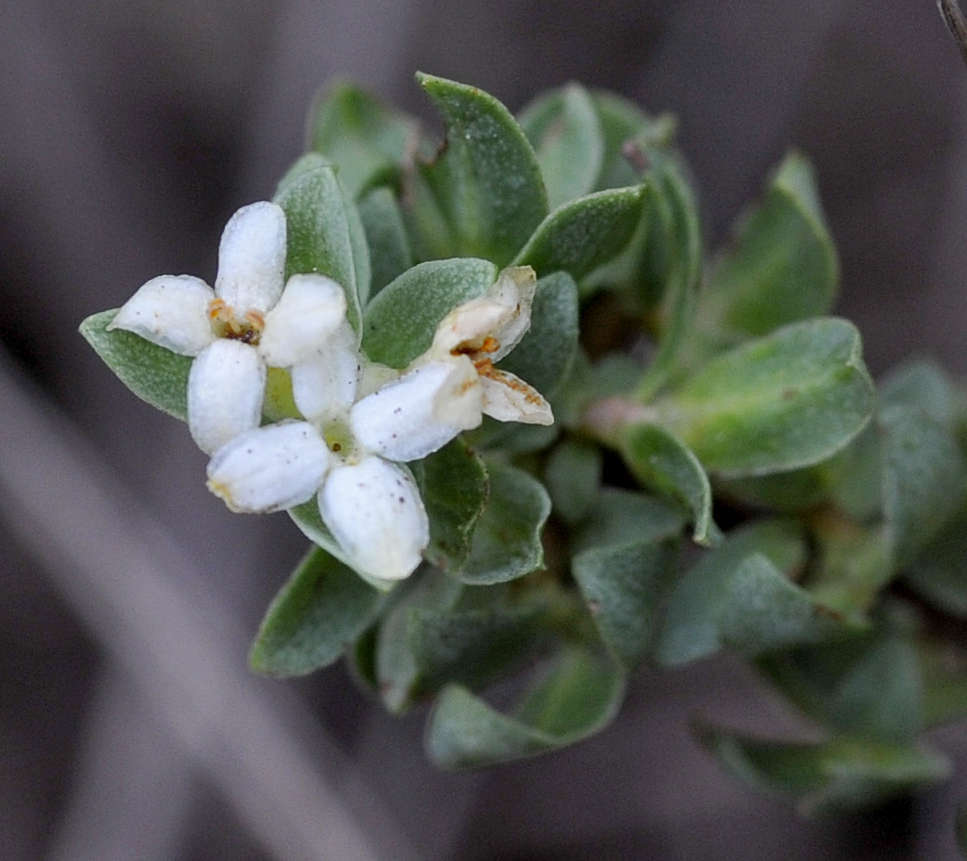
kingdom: Plantae
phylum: Tracheophyta
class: Magnoliopsida
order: Malvales
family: Thymelaeaceae
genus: Pimelea
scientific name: Pimelea spinescens
